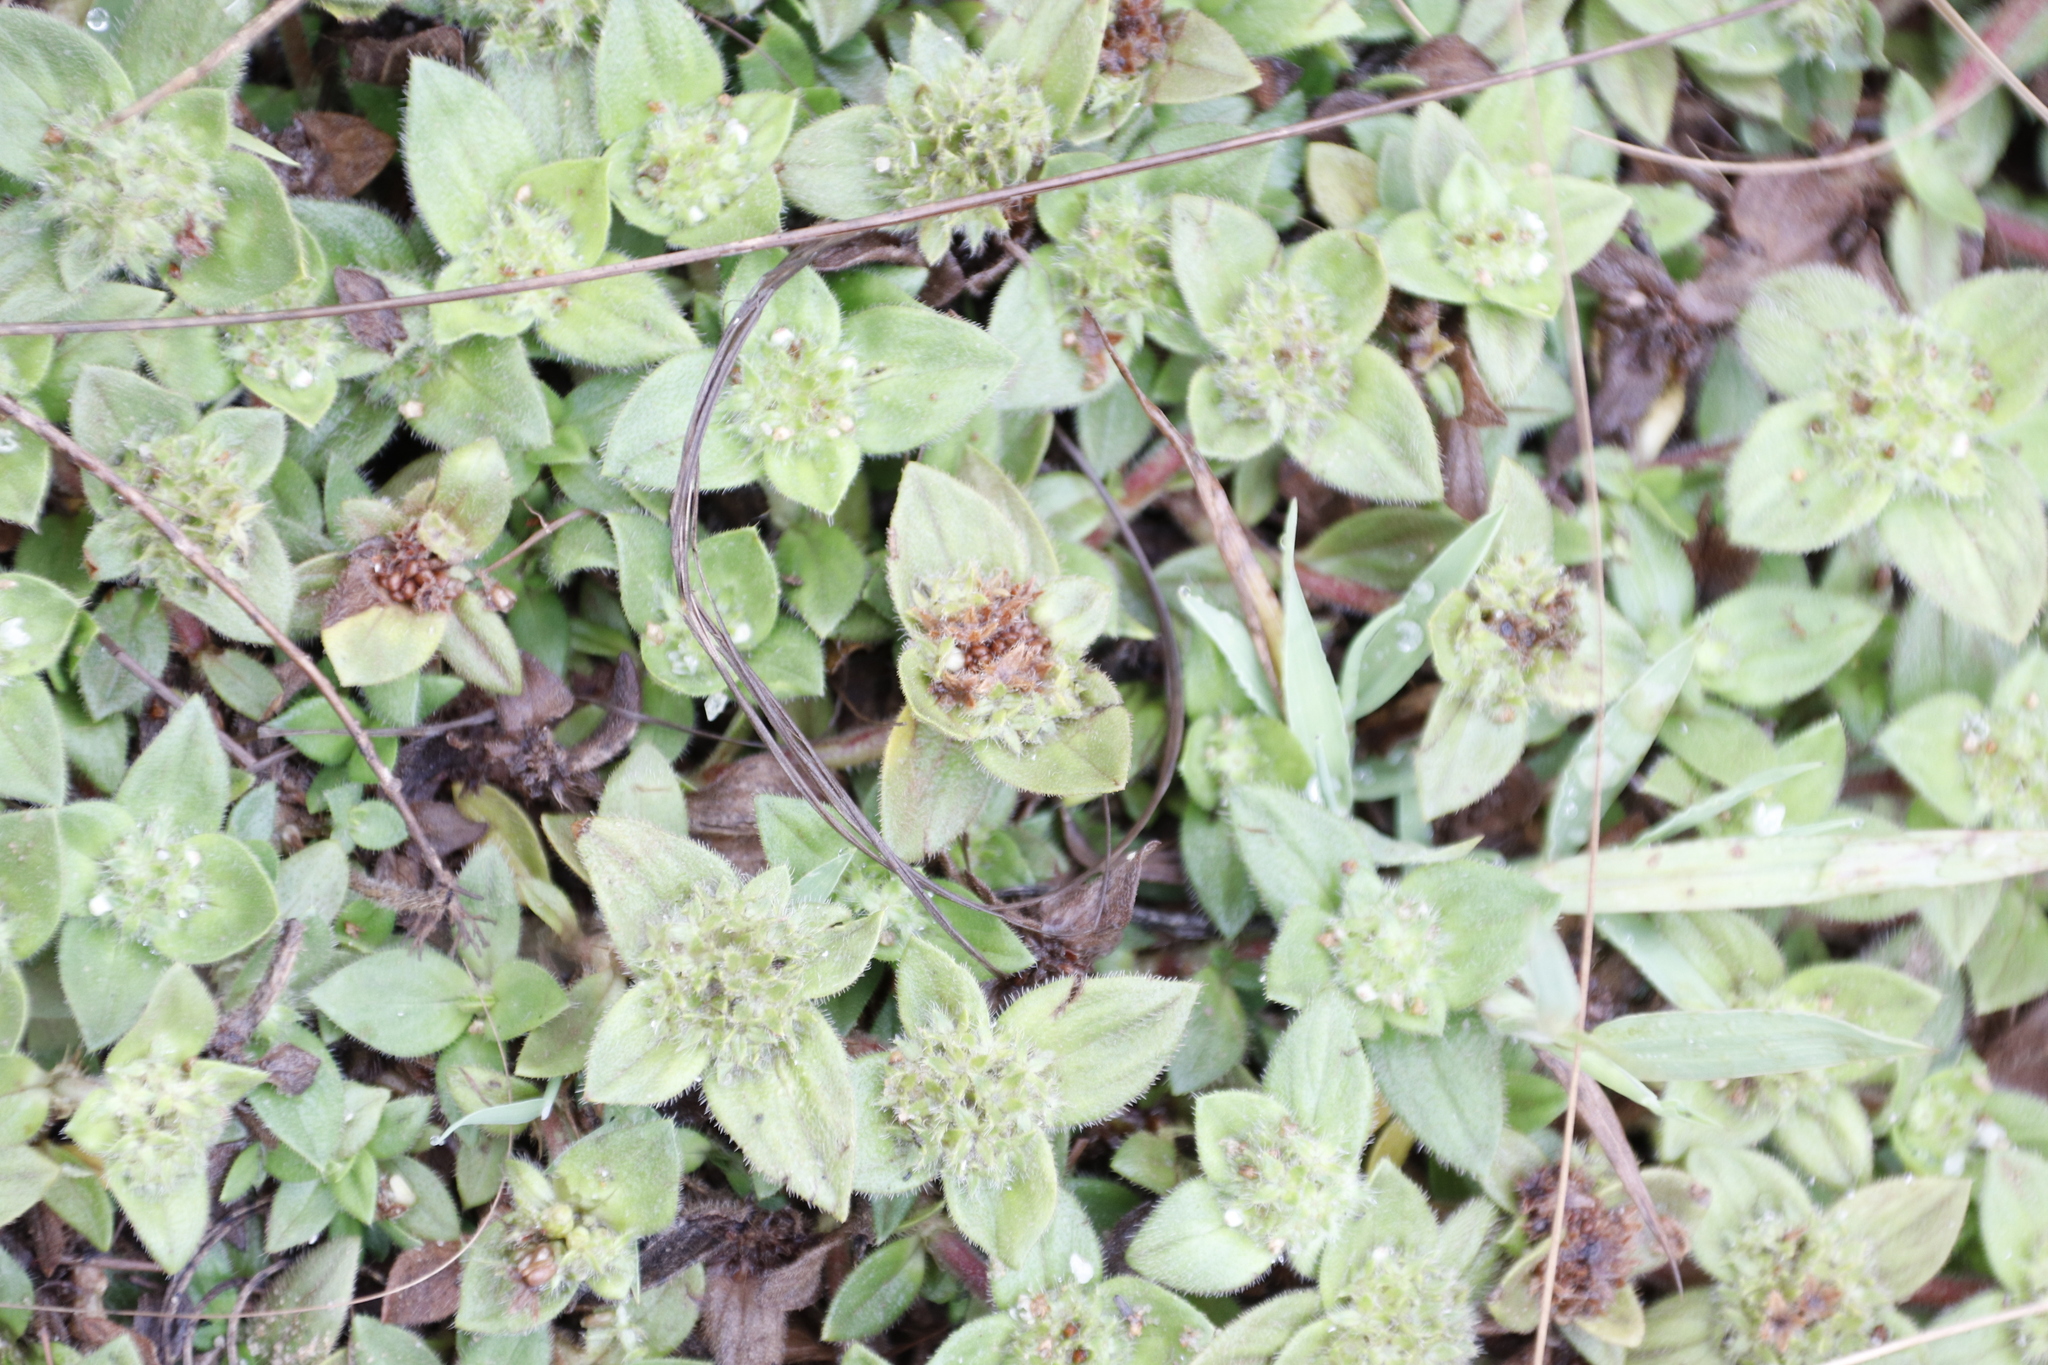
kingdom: Plantae
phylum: Tracheophyta
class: Magnoliopsida
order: Gentianales
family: Rubiaceae
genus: Richardia
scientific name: Richardia brasiliensis
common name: Tropical mexican clover
